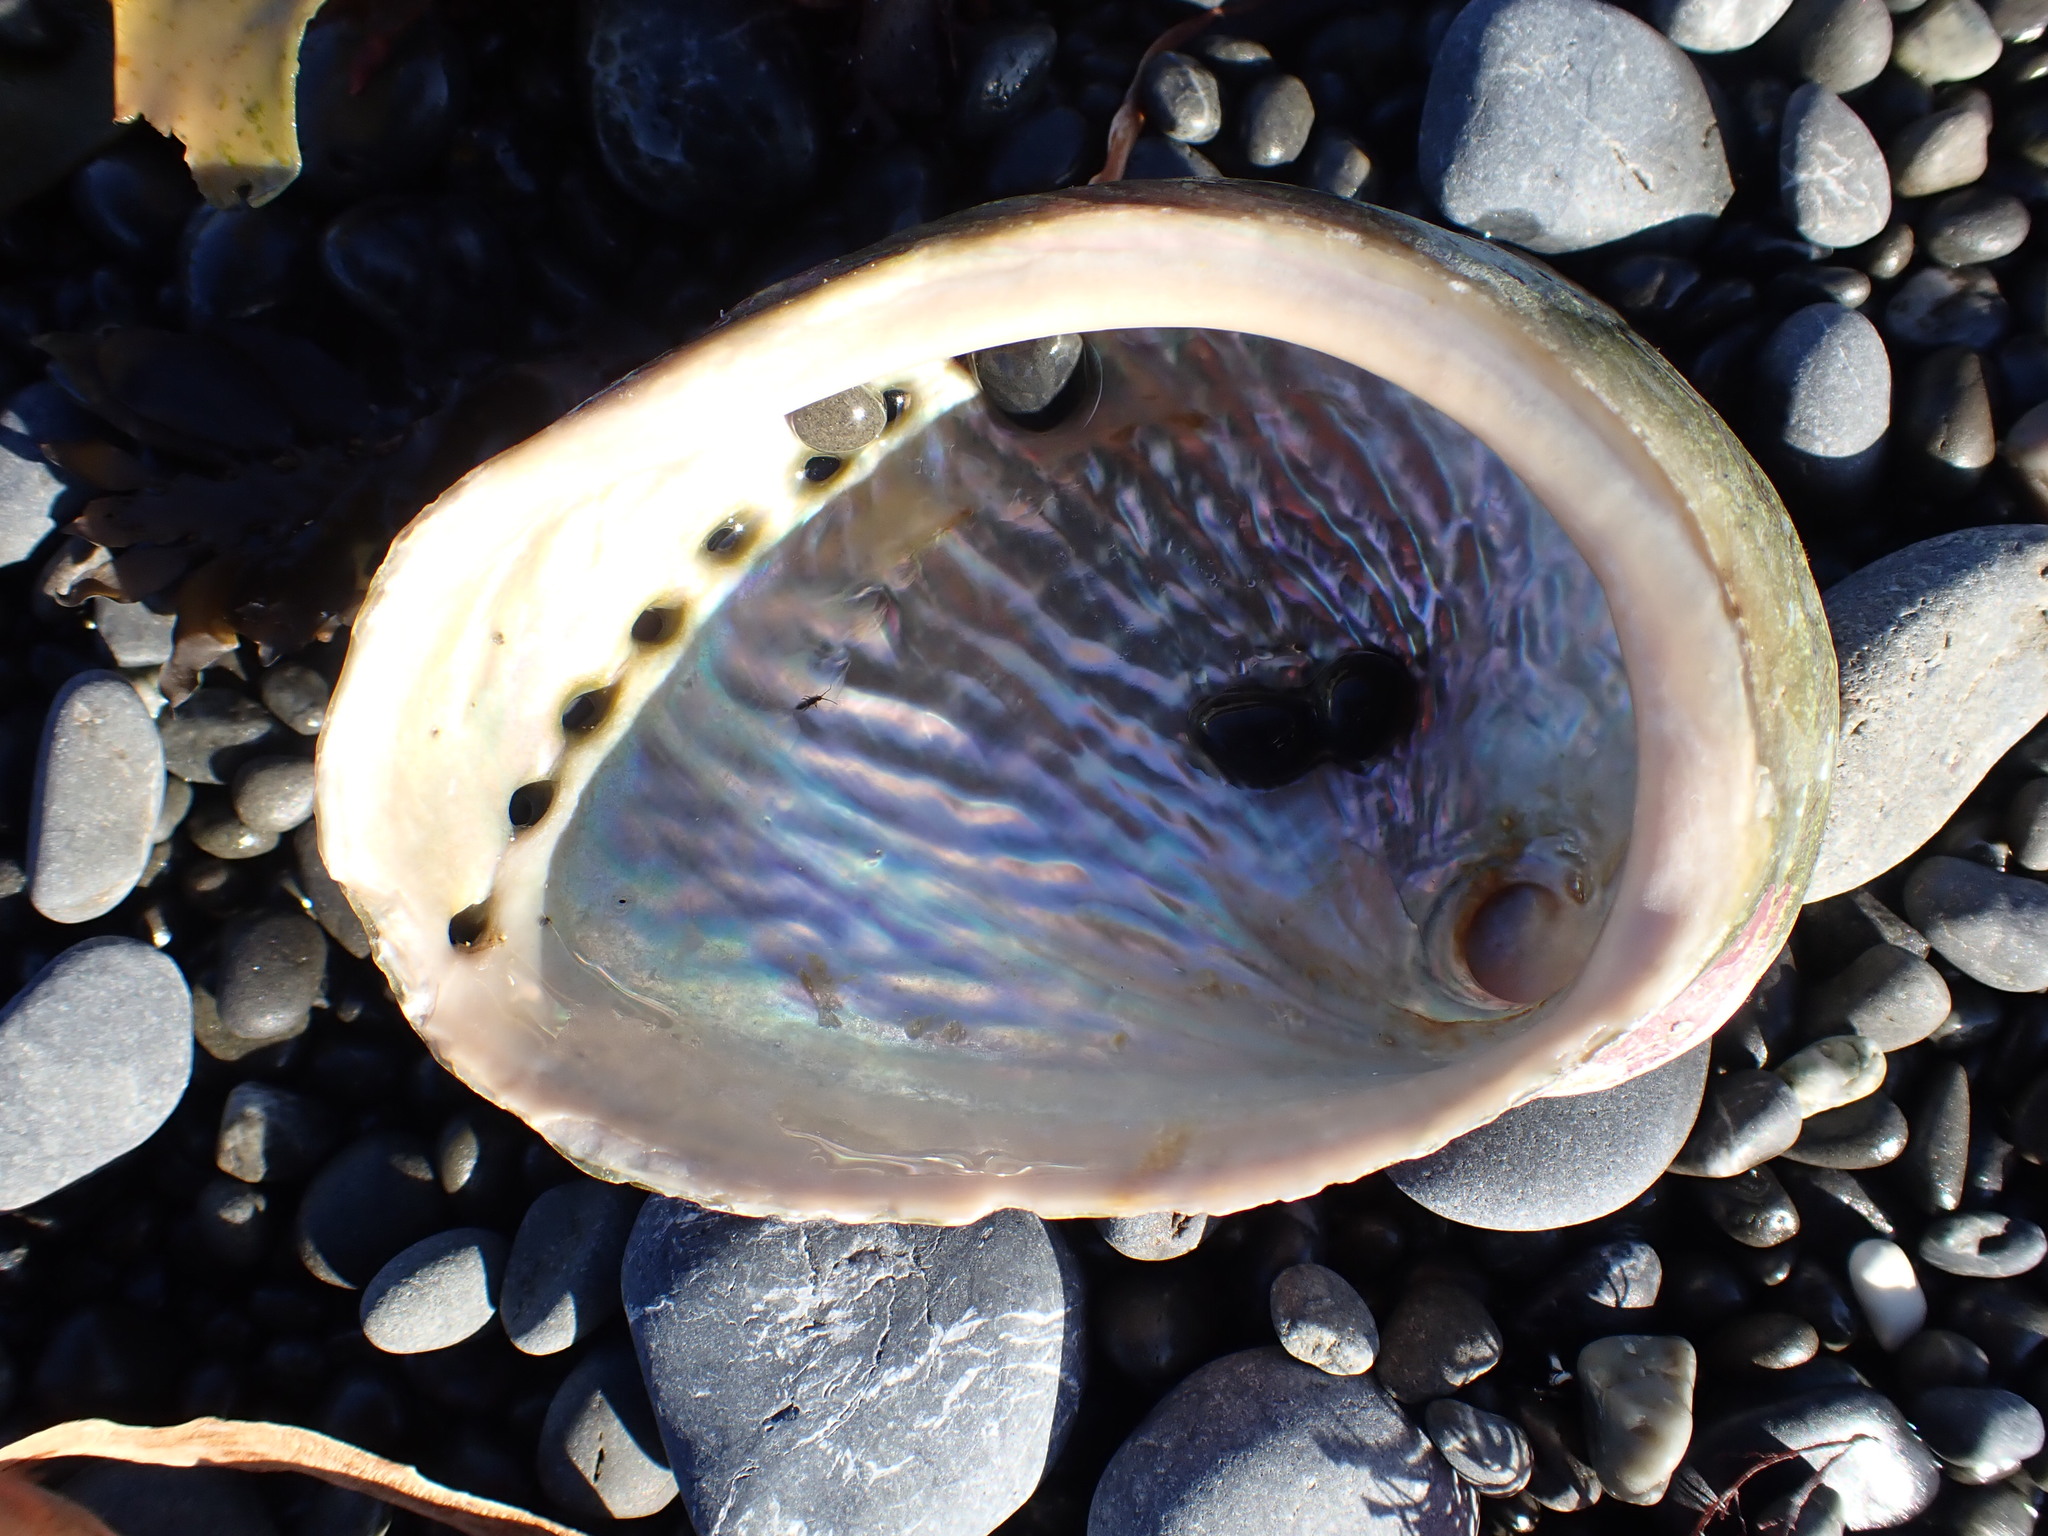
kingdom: Animalia
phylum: Mollusca
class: Gastropoda
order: Lepetellida
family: Haliotidae
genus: Haliotis
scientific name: Haliotis australis
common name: Silver abalone
